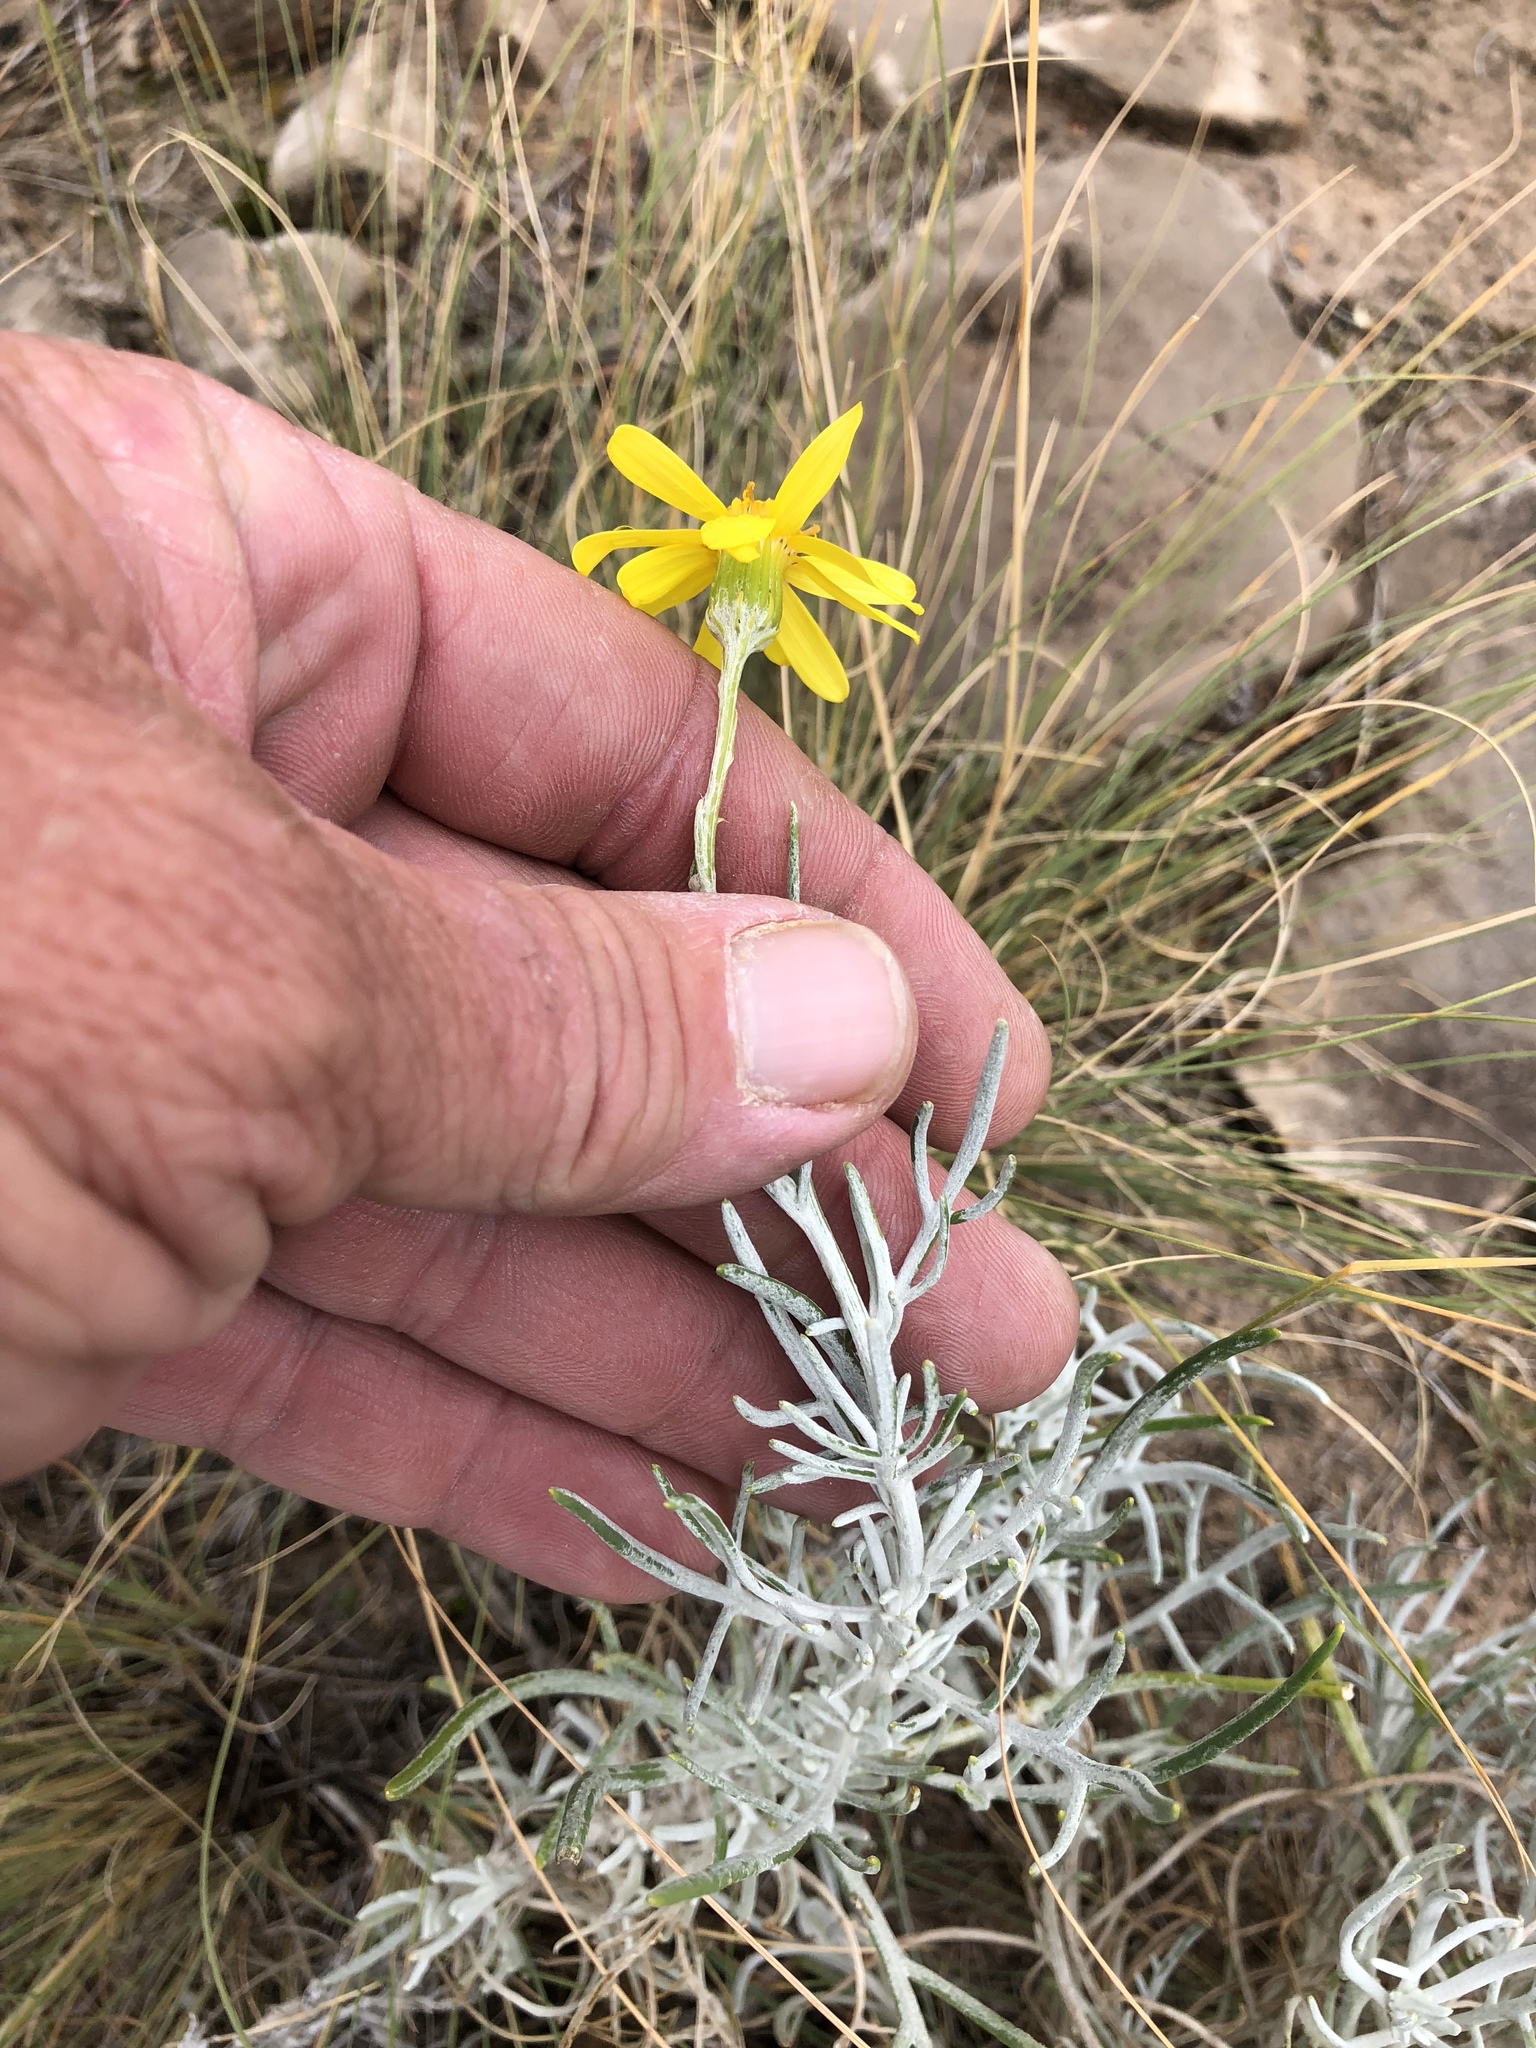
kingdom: Plantae
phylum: Tracheophyta
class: Magnoliopsida
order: Asterales
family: Asteraceae
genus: Senecio
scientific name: Senecio flaccidus
